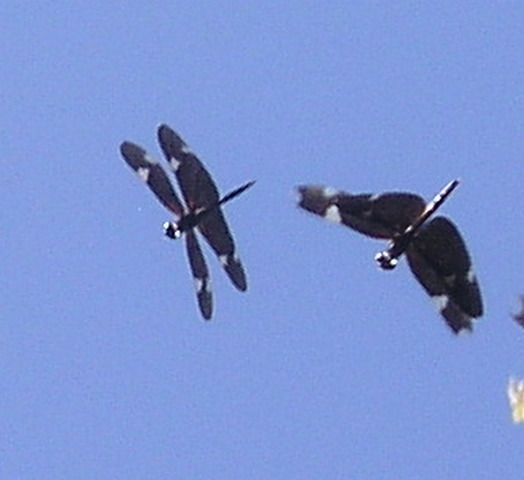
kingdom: Animalia
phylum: Arthropoda
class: Insecta
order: Odonata
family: Libellulidae
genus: Rhyothemis
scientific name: Rhyothemis princeps
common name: Sapphire flutterer
